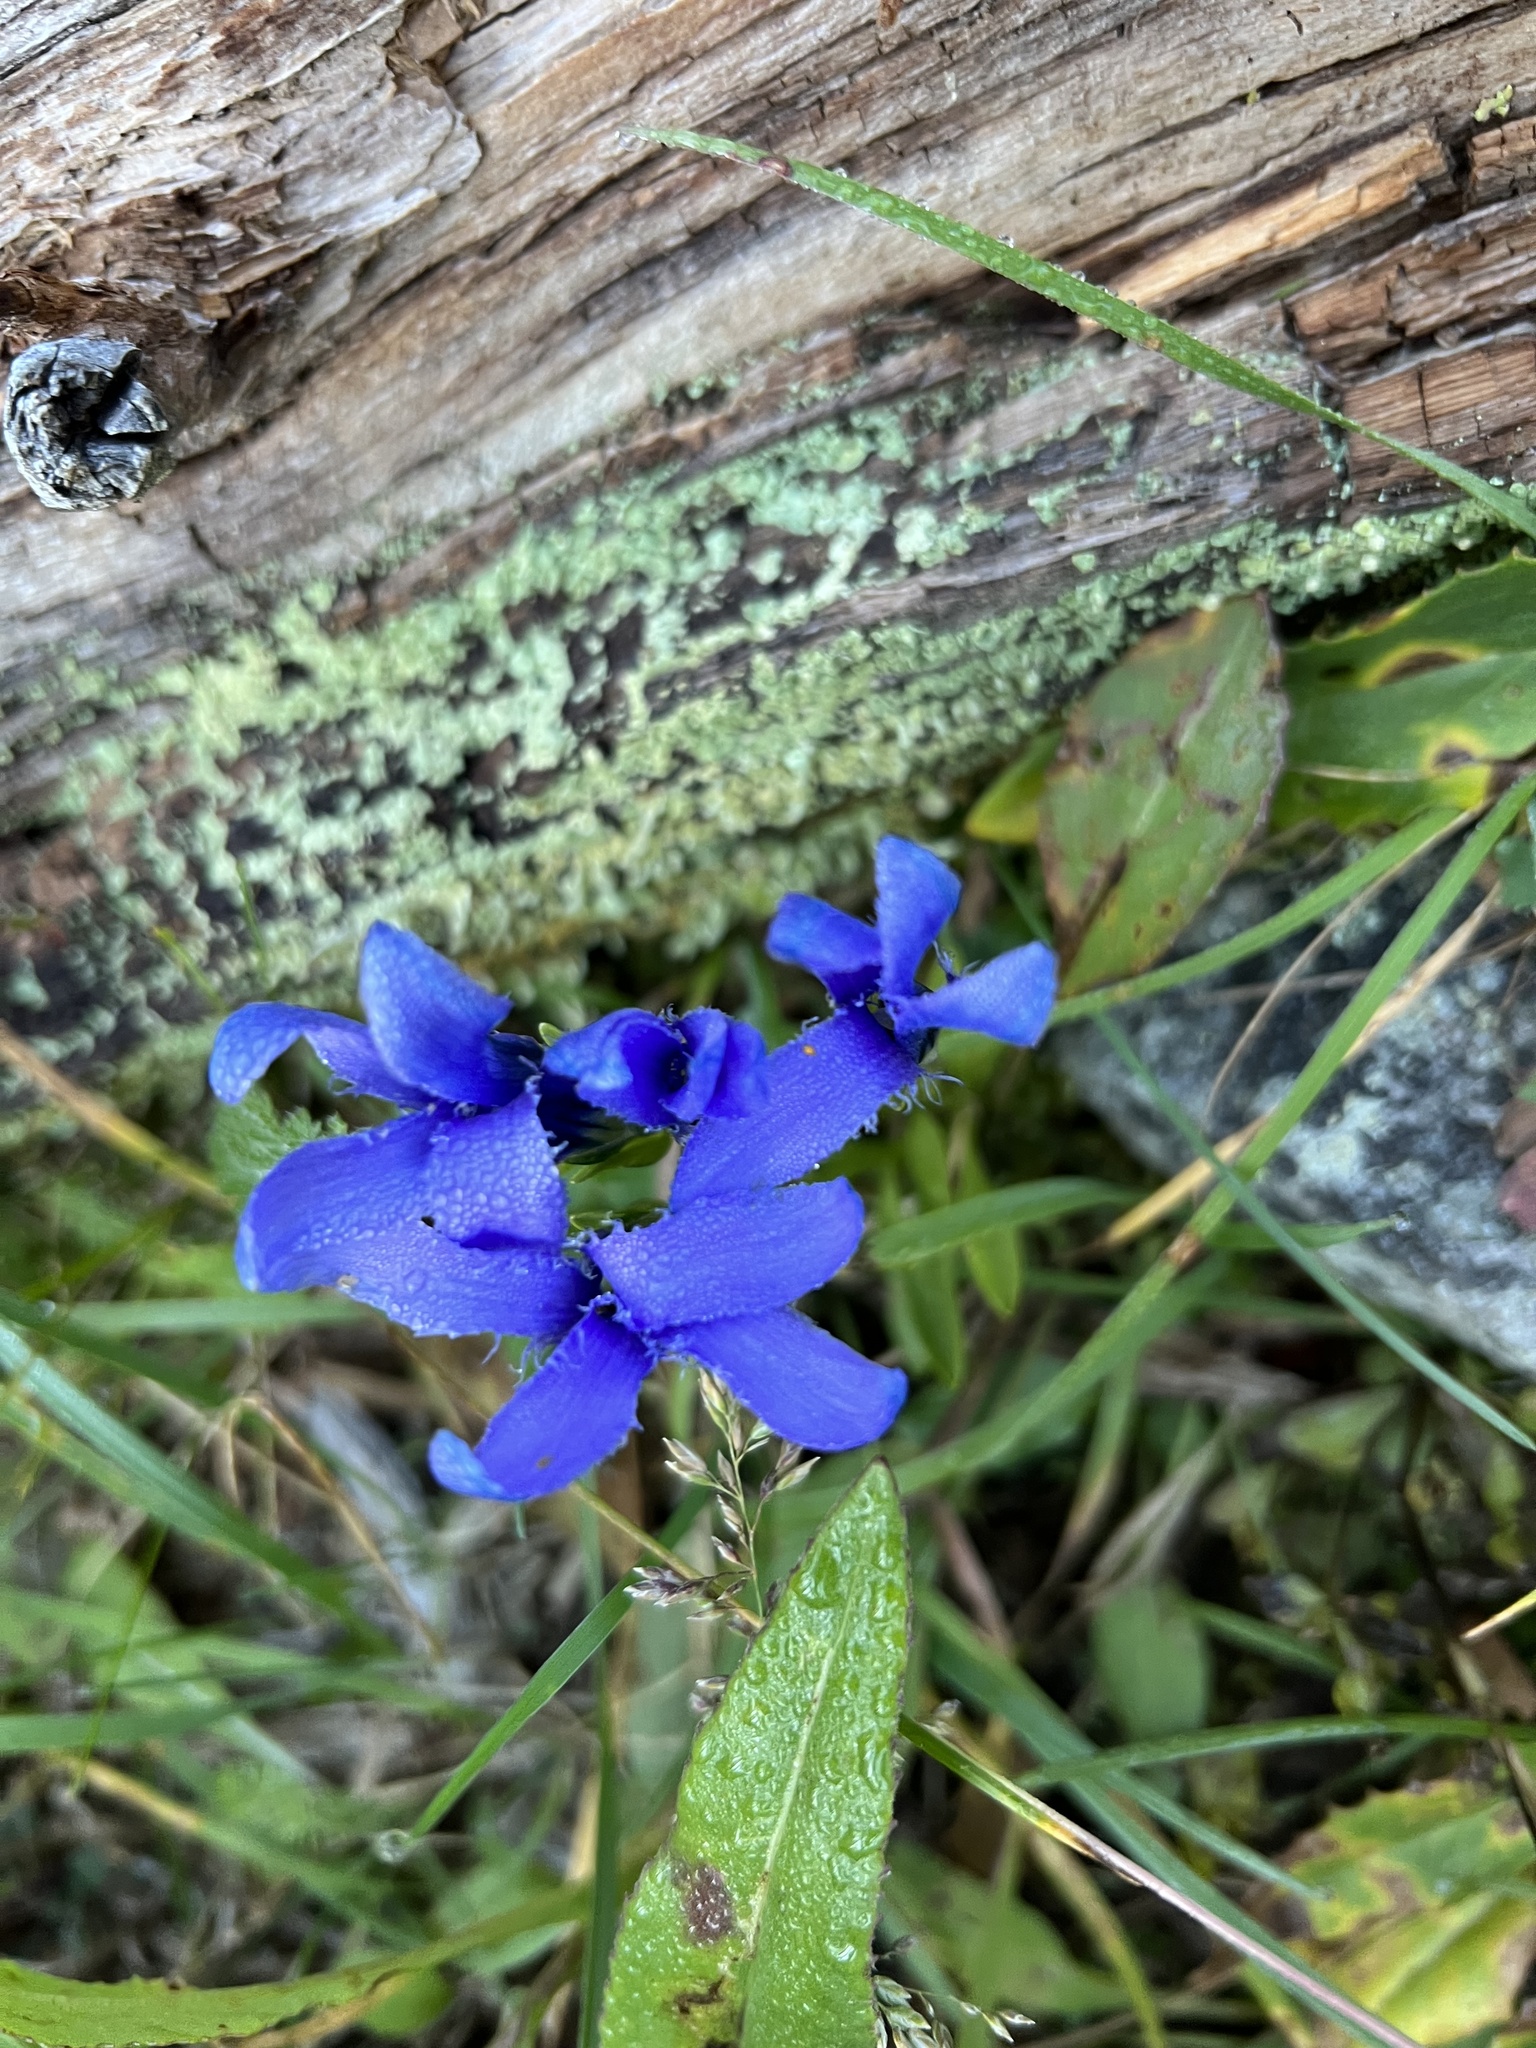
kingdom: Plantae
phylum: Tracheophyta
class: Magnoliopsida
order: Gentianales
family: Gentianaceae
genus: Gentianopsis
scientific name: Gentianopsis barbellata
